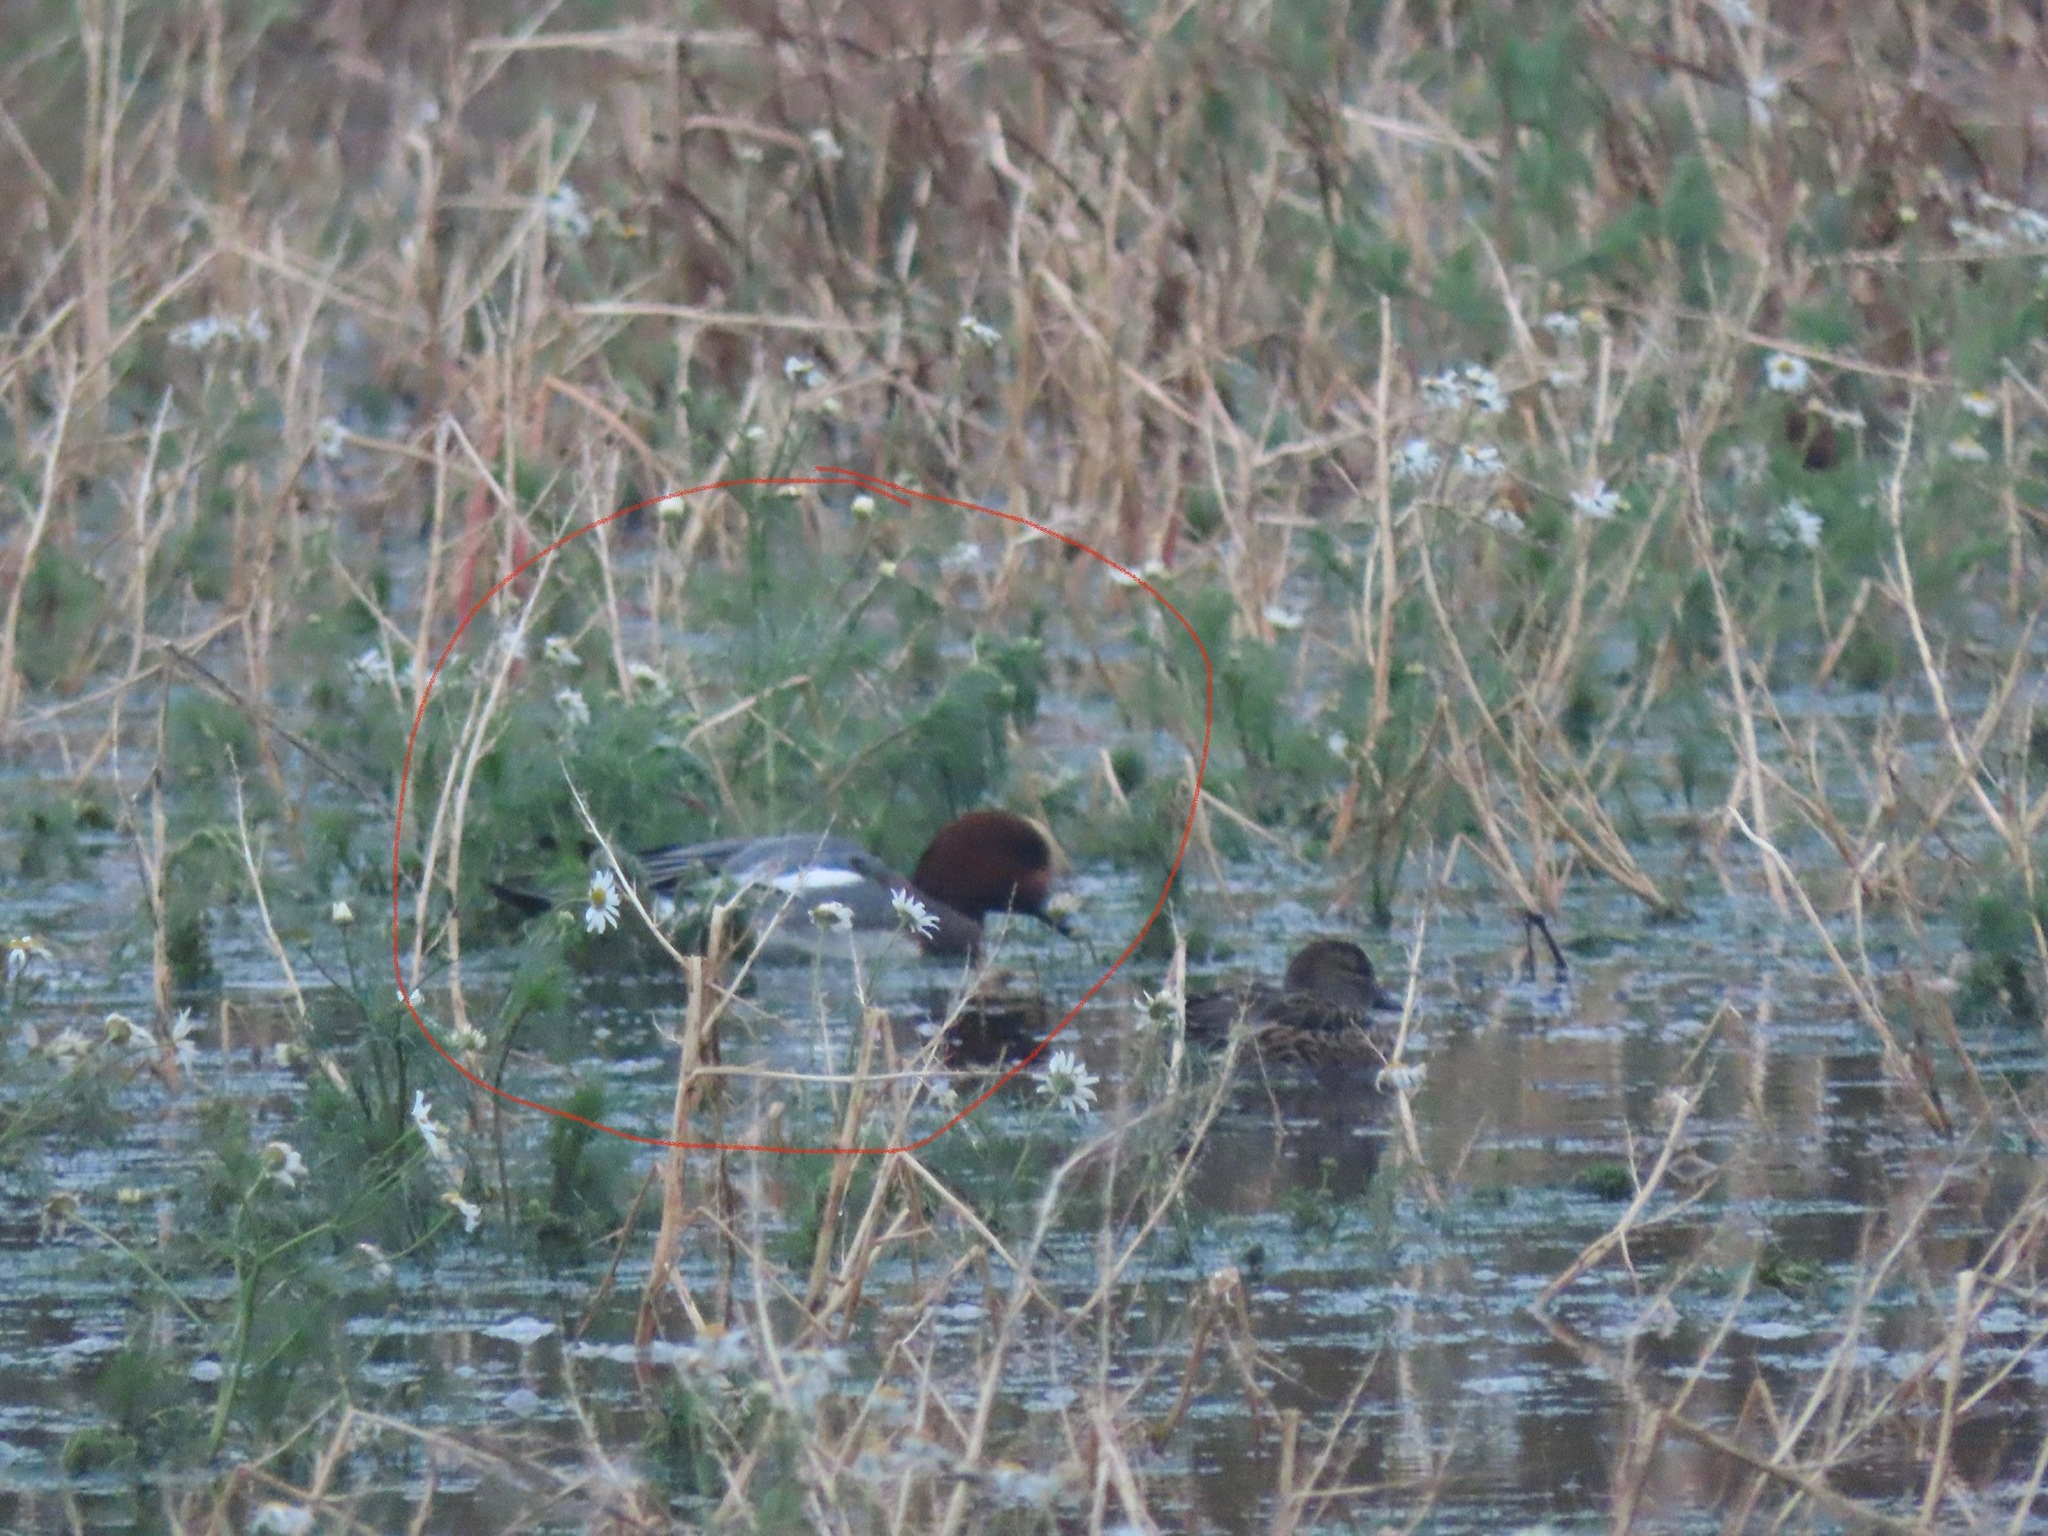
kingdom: Animalia
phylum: Chordata
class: Aves
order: Anseriformes
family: Anatidae
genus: Mareca
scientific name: Mareca penelope
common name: Eurasian wigeon
